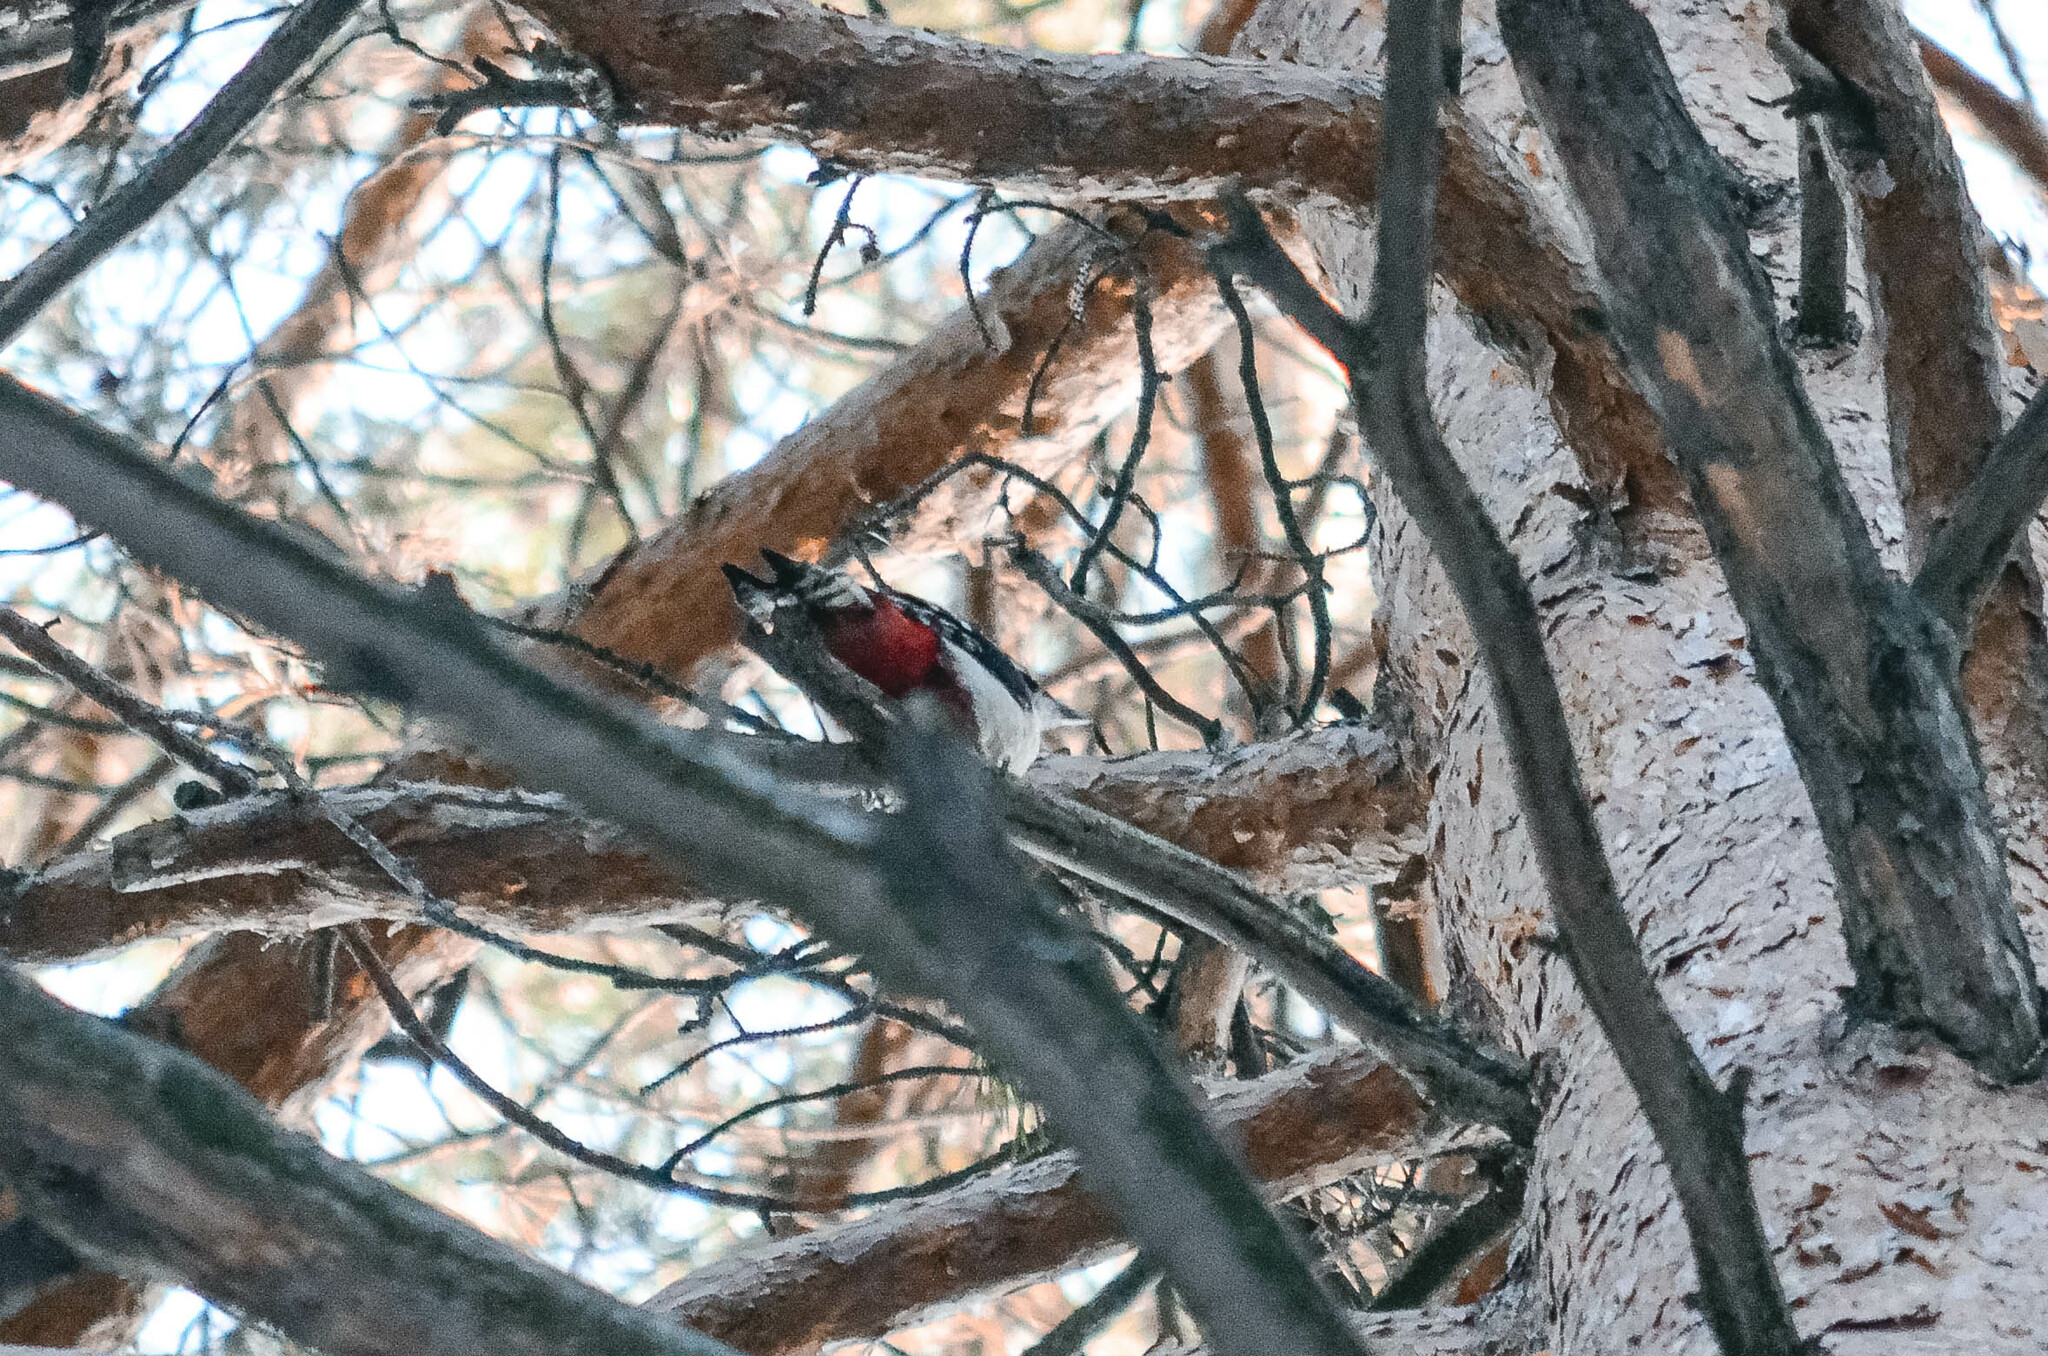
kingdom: Animalia
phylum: Chordata
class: Aves
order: Piciformes
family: Picidae
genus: Dendrocopos
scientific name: Dendrocopos major
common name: Great spotted woodpecker
